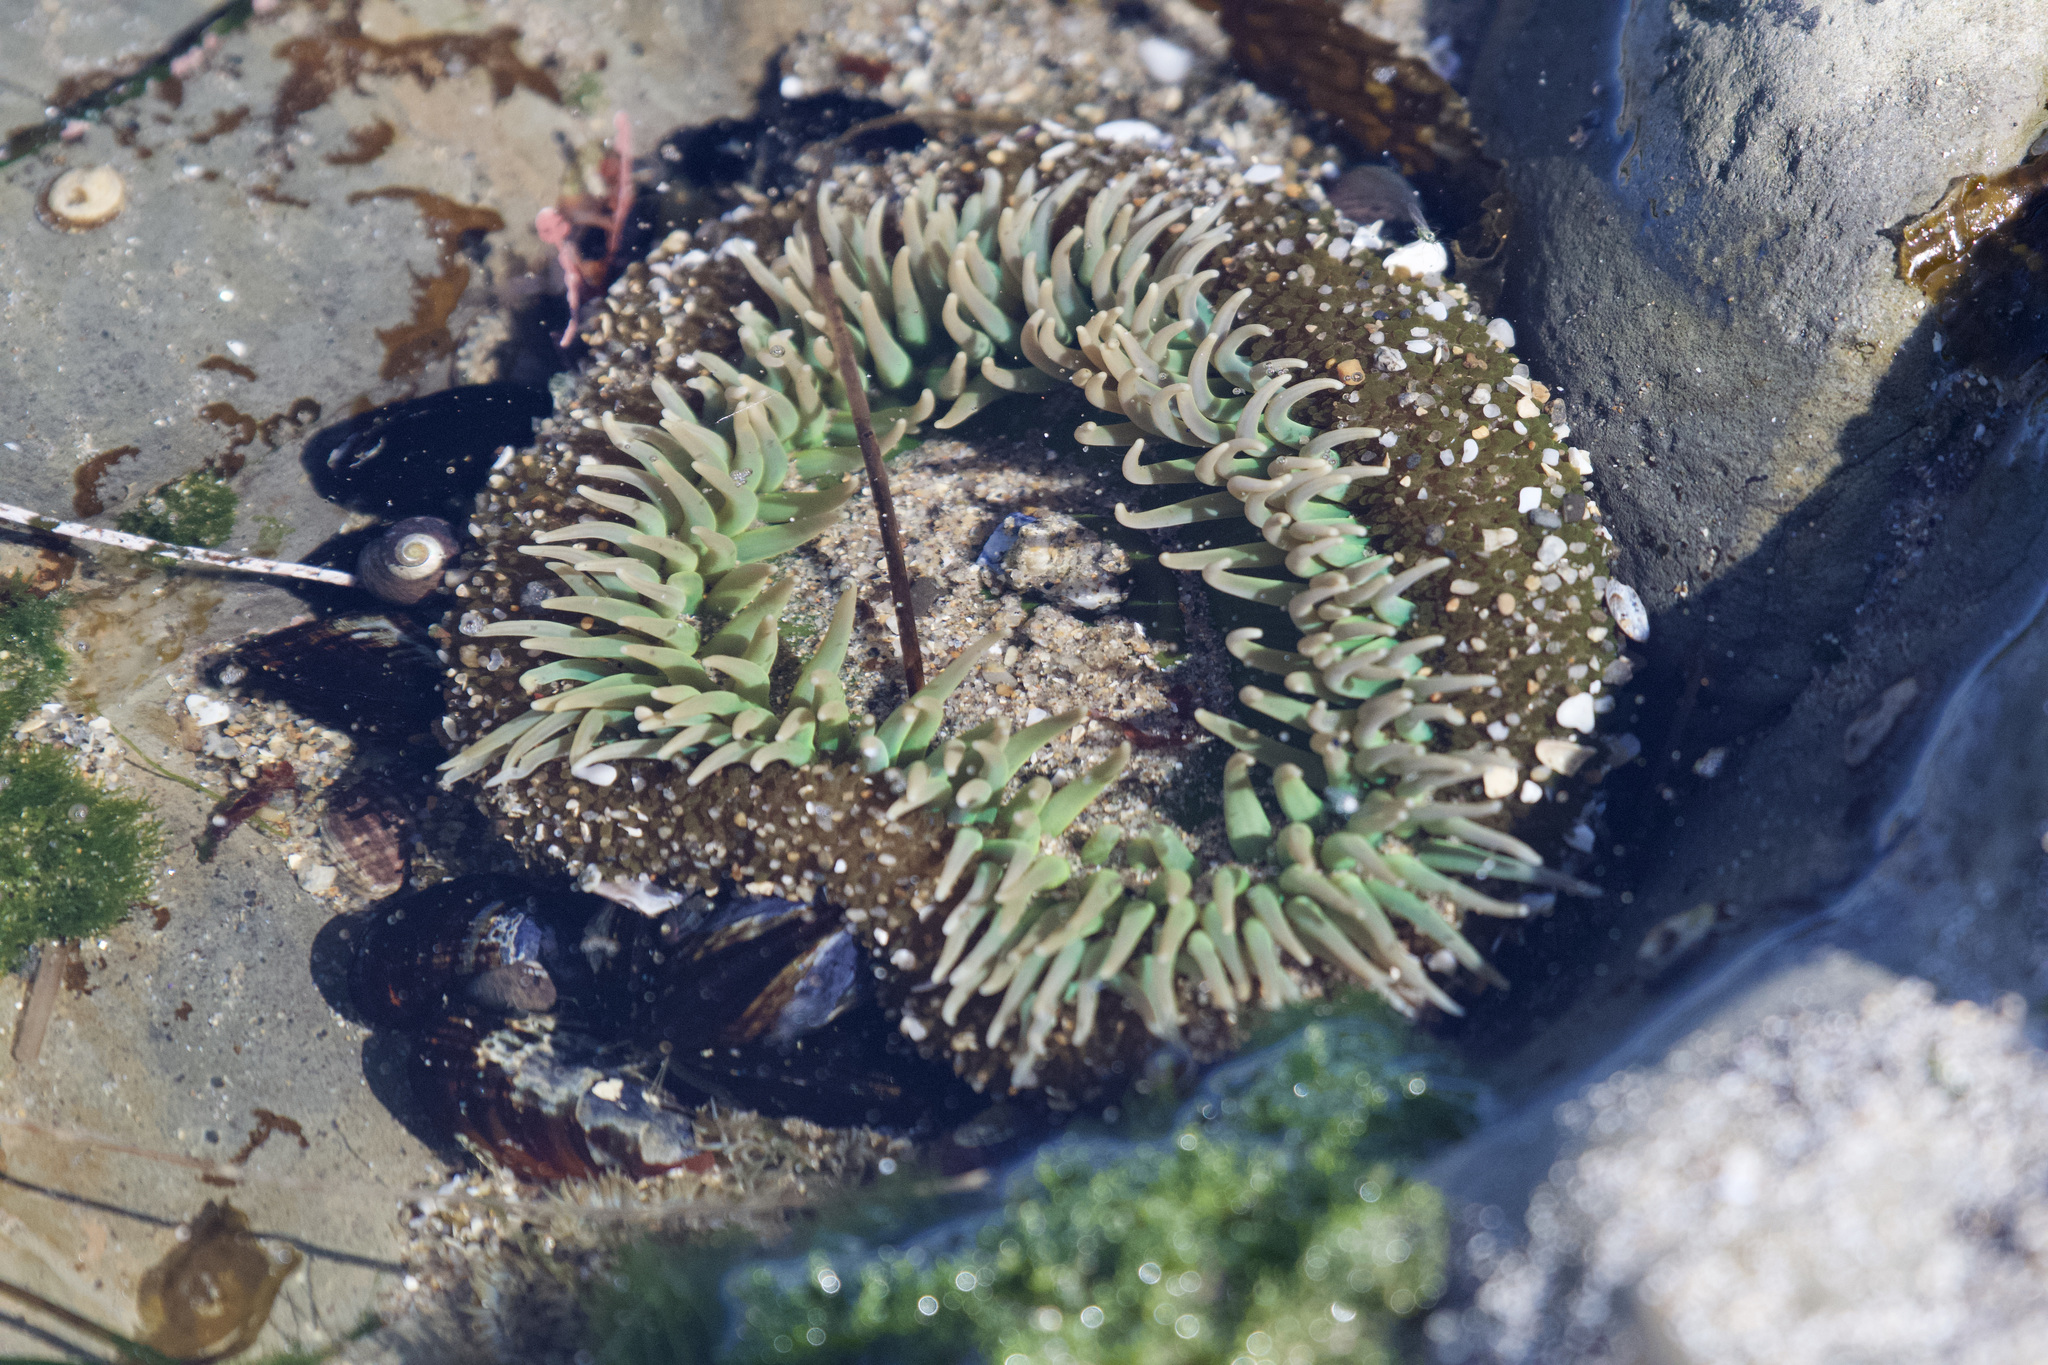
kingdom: Animalia
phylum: Cnidaria
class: Anthozoa
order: Actiniaria
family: Actiniidae
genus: Anthopleura
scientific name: Anthopleura xanthogrammica
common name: Giant green anemone
